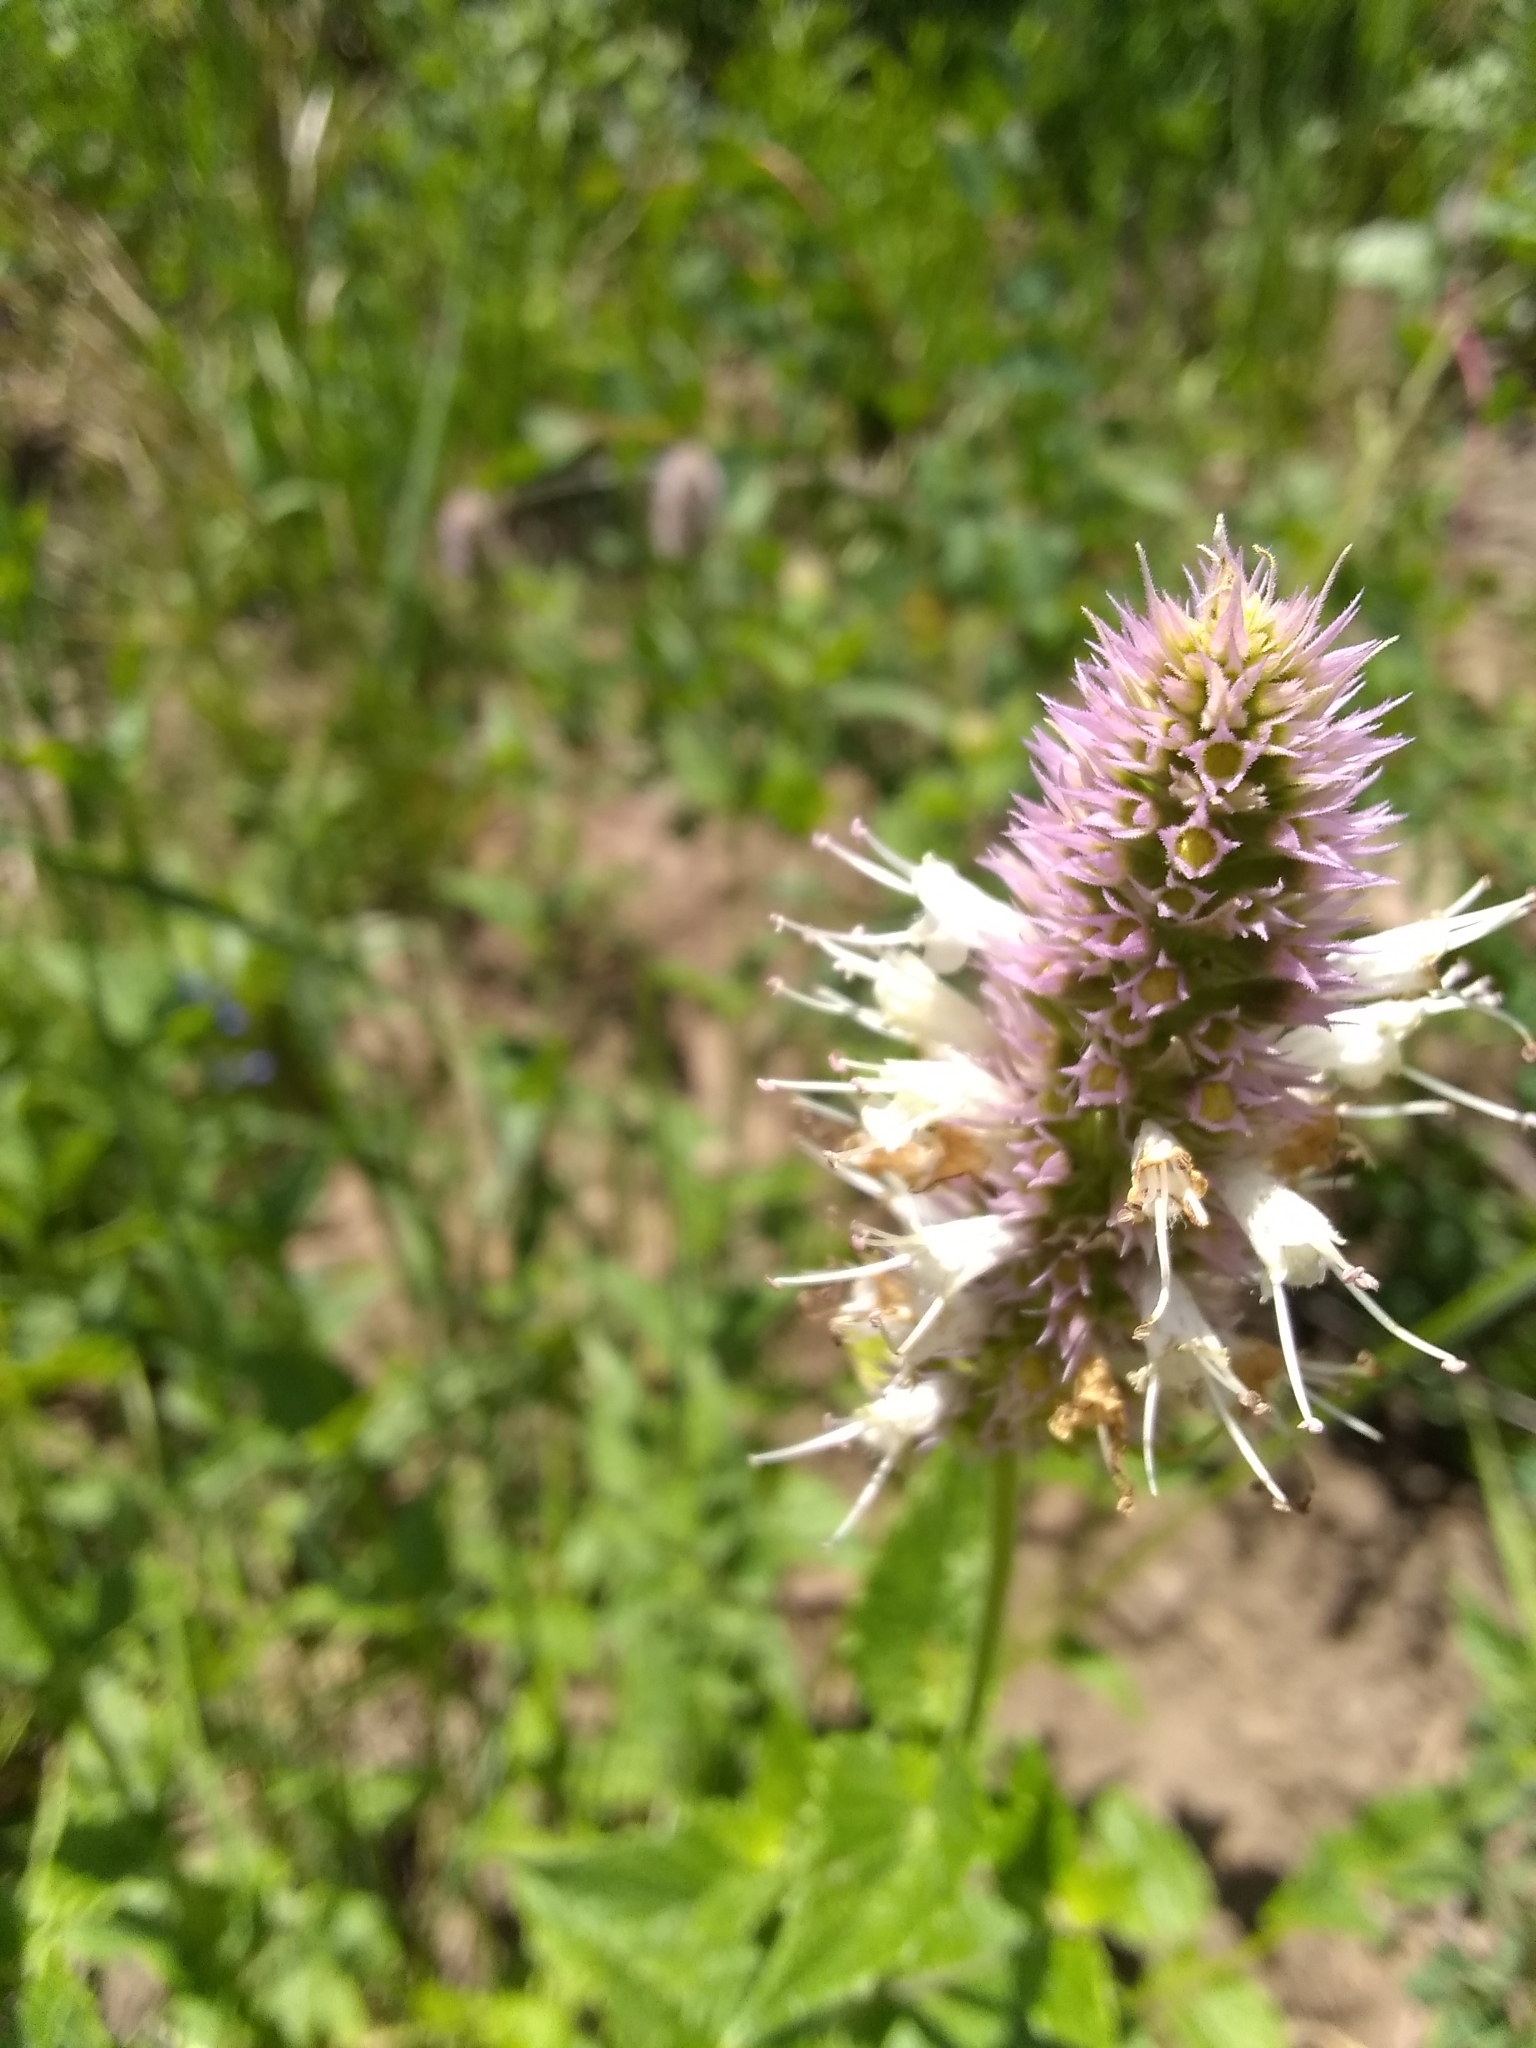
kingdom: Plantae
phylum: Tracheophyta
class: Magnoliopsida
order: Lamiales
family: Lamiaceae
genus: Agastache
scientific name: Agastache urticifolia
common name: Horsemint giant hyssop
